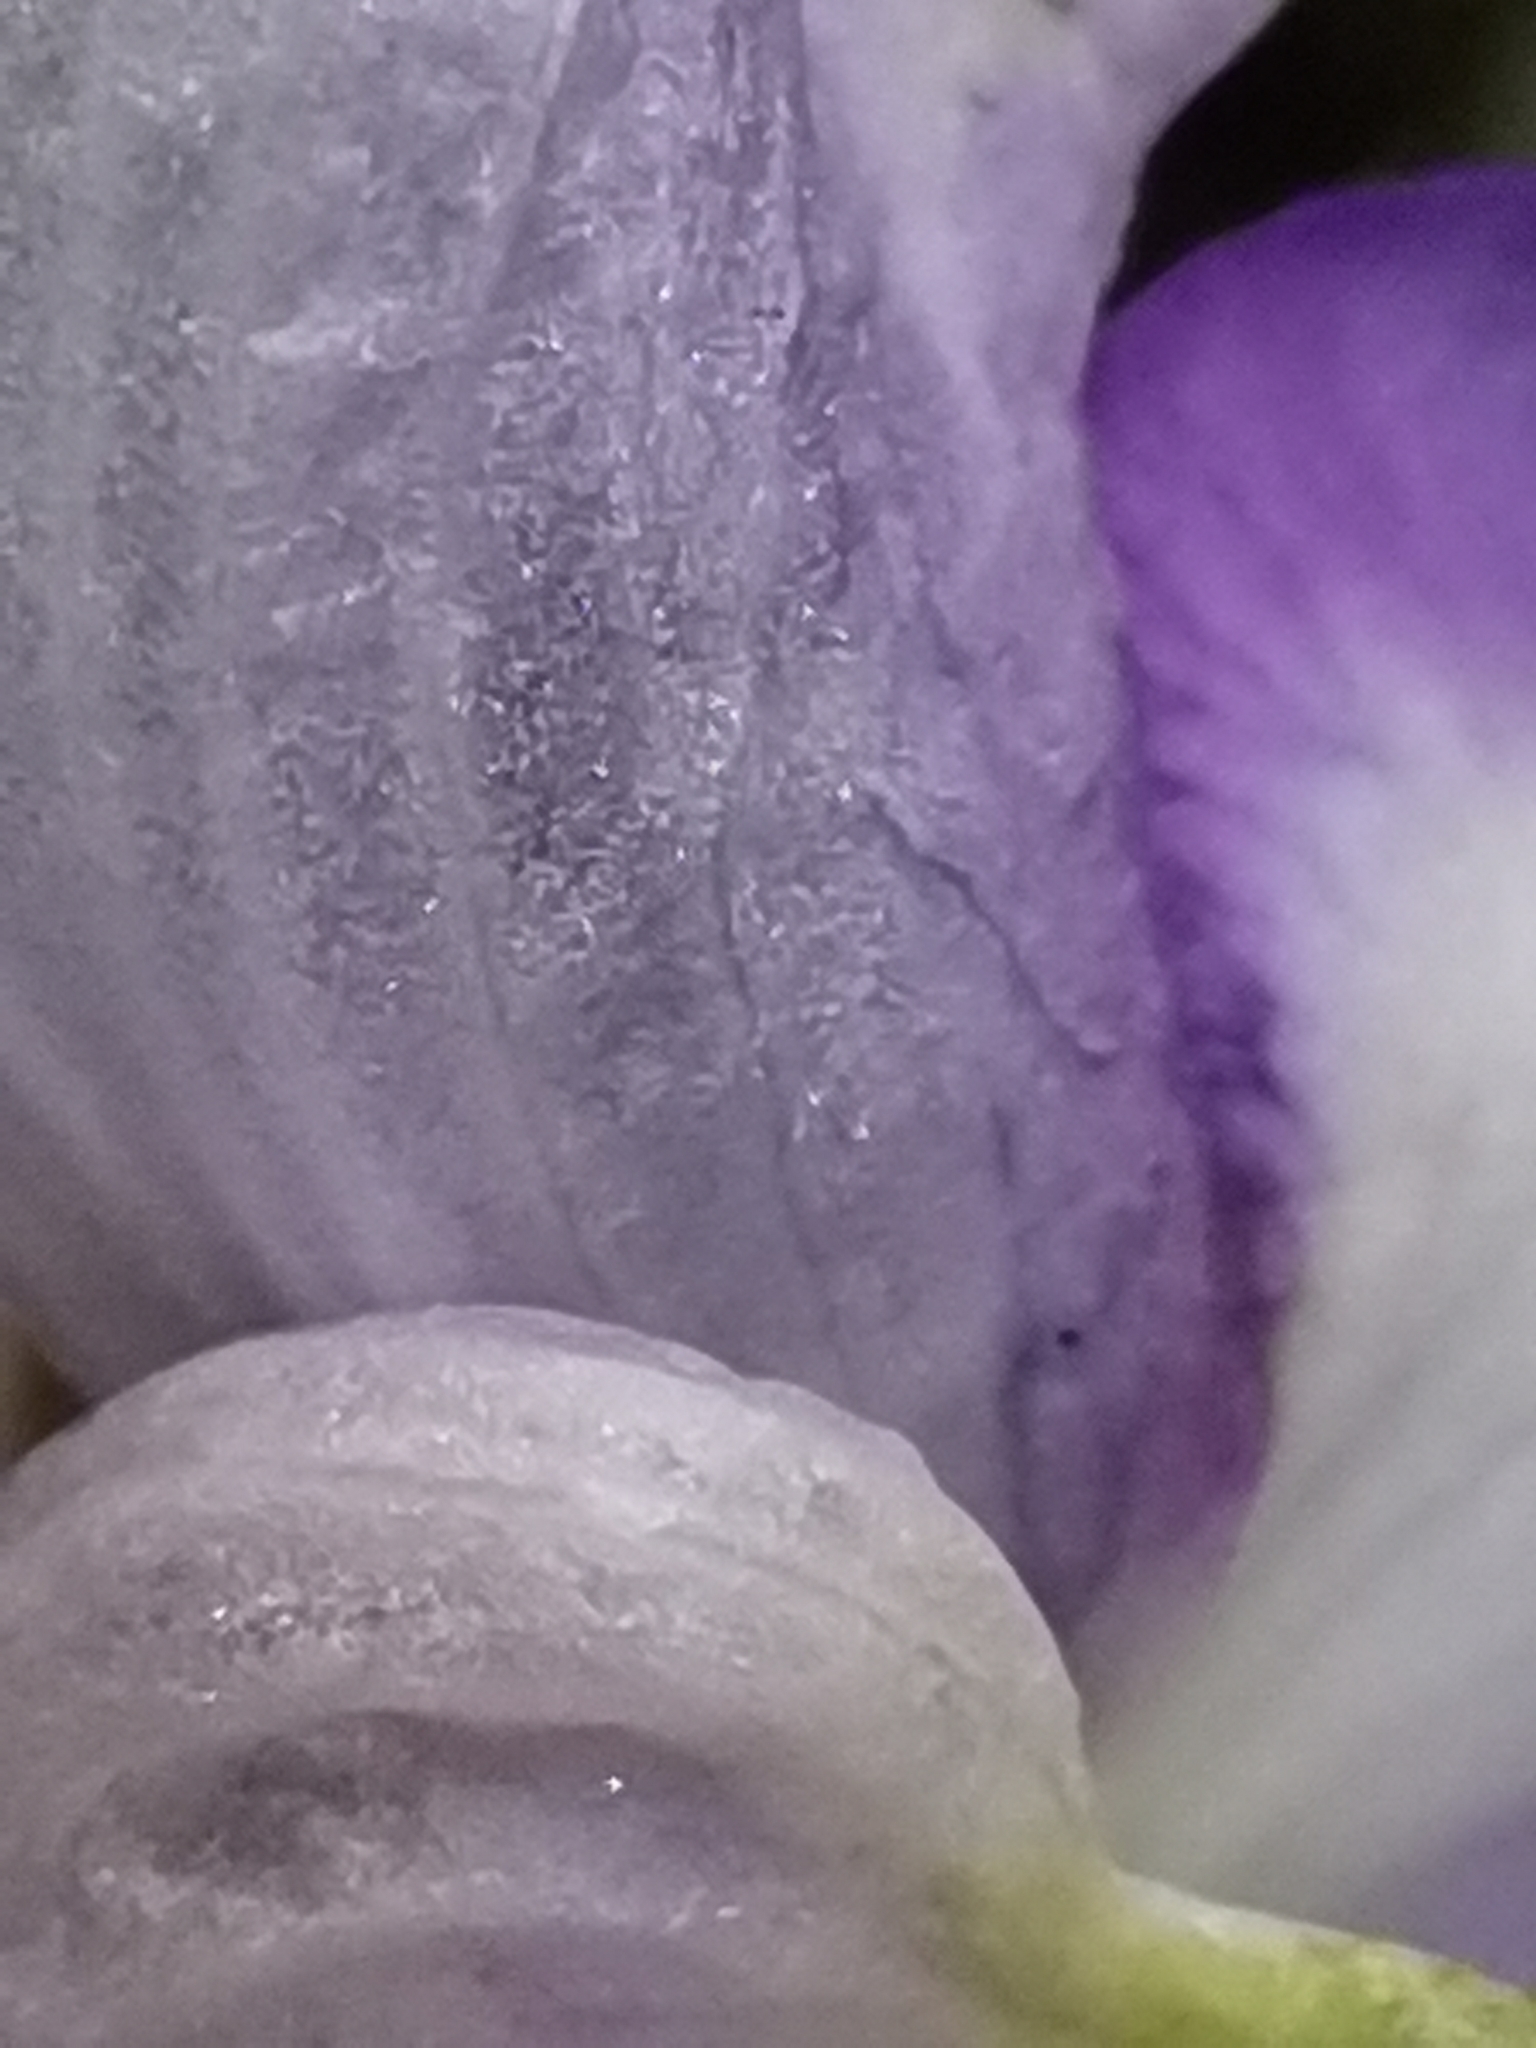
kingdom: Plantae
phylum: Tracheophyta
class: Magnoliopsida
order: Ranunculales
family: Ranunculaceae
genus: Aconitum
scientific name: Aconitum variegatum
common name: Manchurian monkshood
